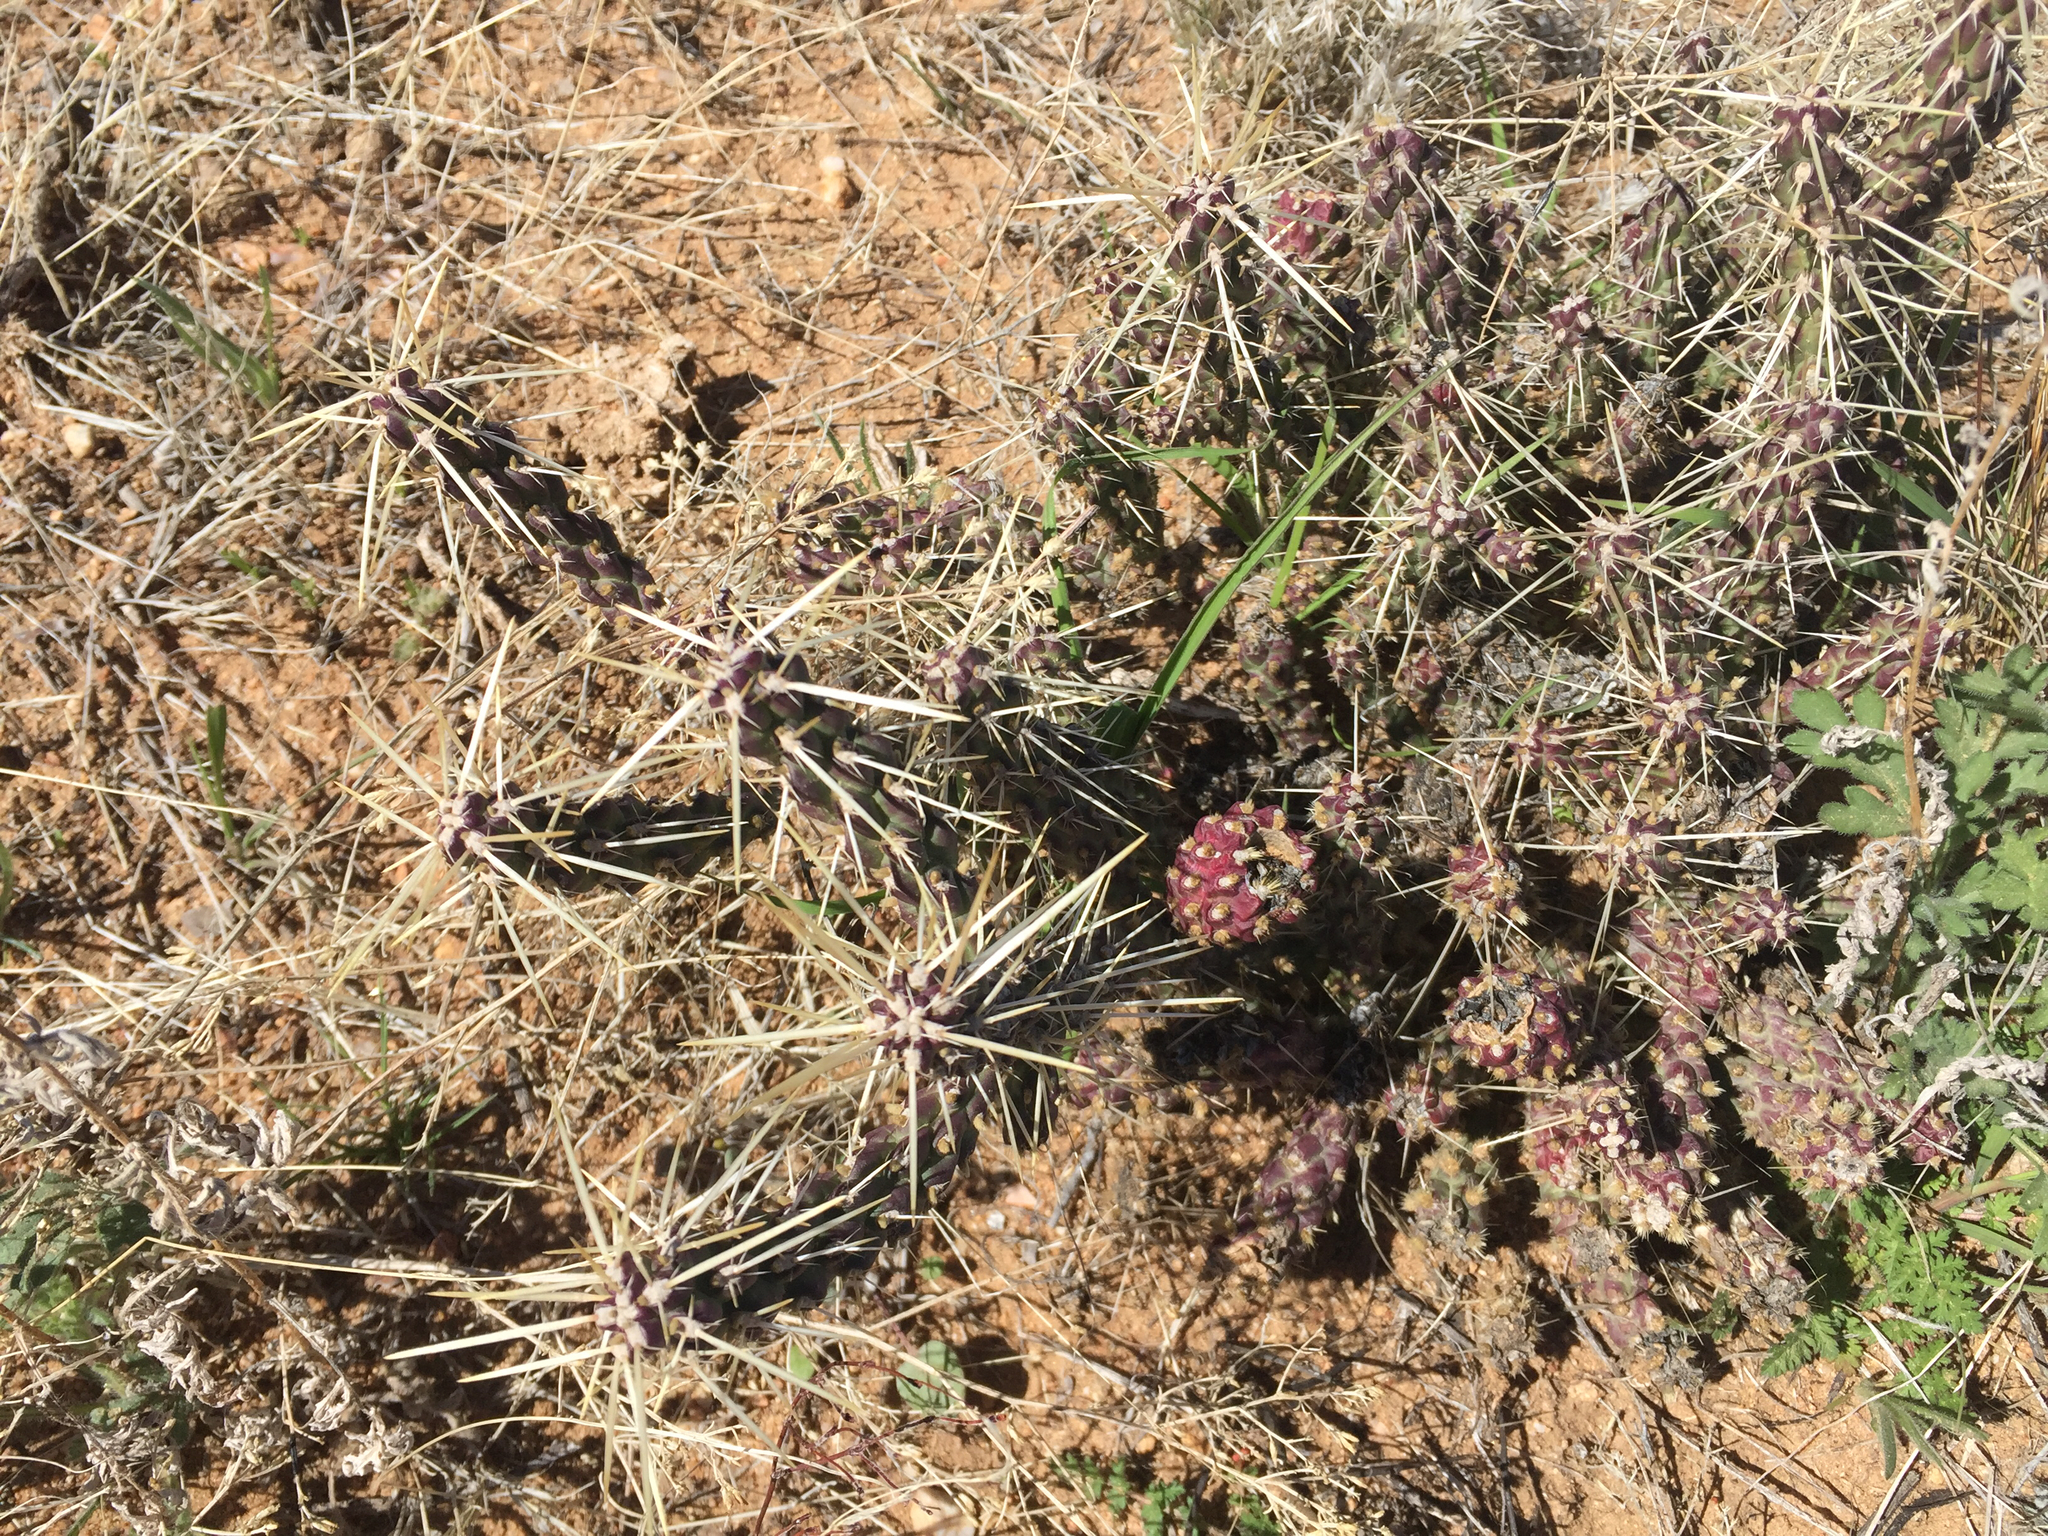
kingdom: Plantae
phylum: Tracheophyta
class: Magnoliopsida
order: Caryophyllales
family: Cactaceae
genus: Cylindropuntia
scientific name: Cylindropuntia whipplei
